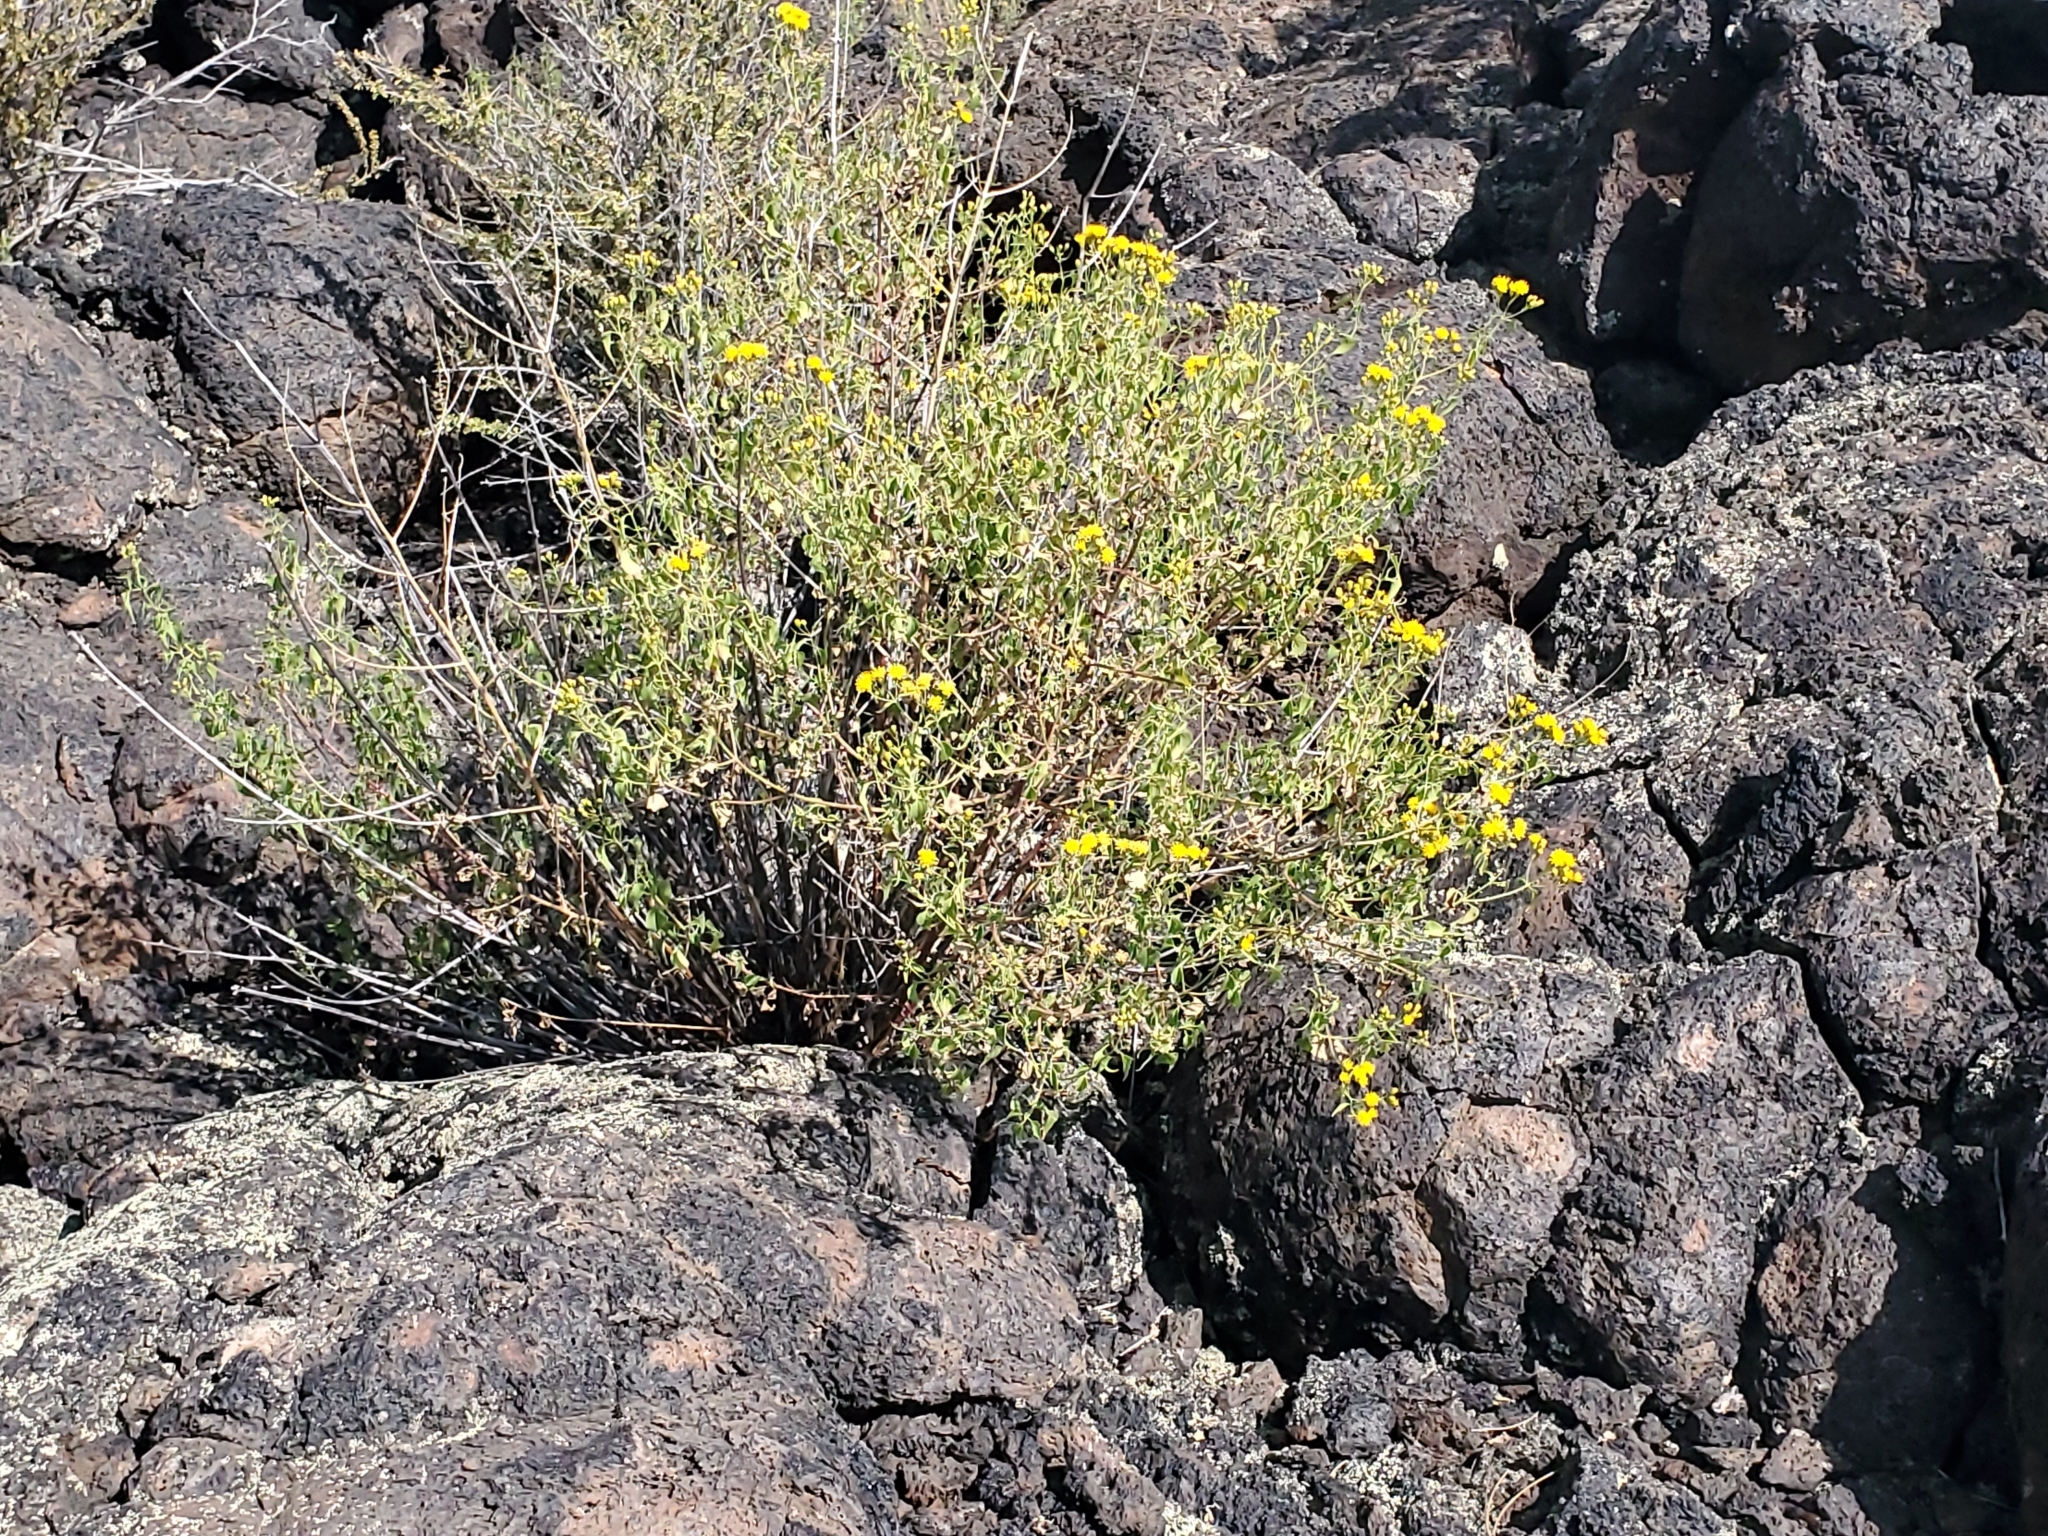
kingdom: Plantae
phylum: Tracheophyta
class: Magnoliopsida
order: Asterales
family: Asteraceae
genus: Pericome
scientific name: Pericome caudata
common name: Taperleaf
